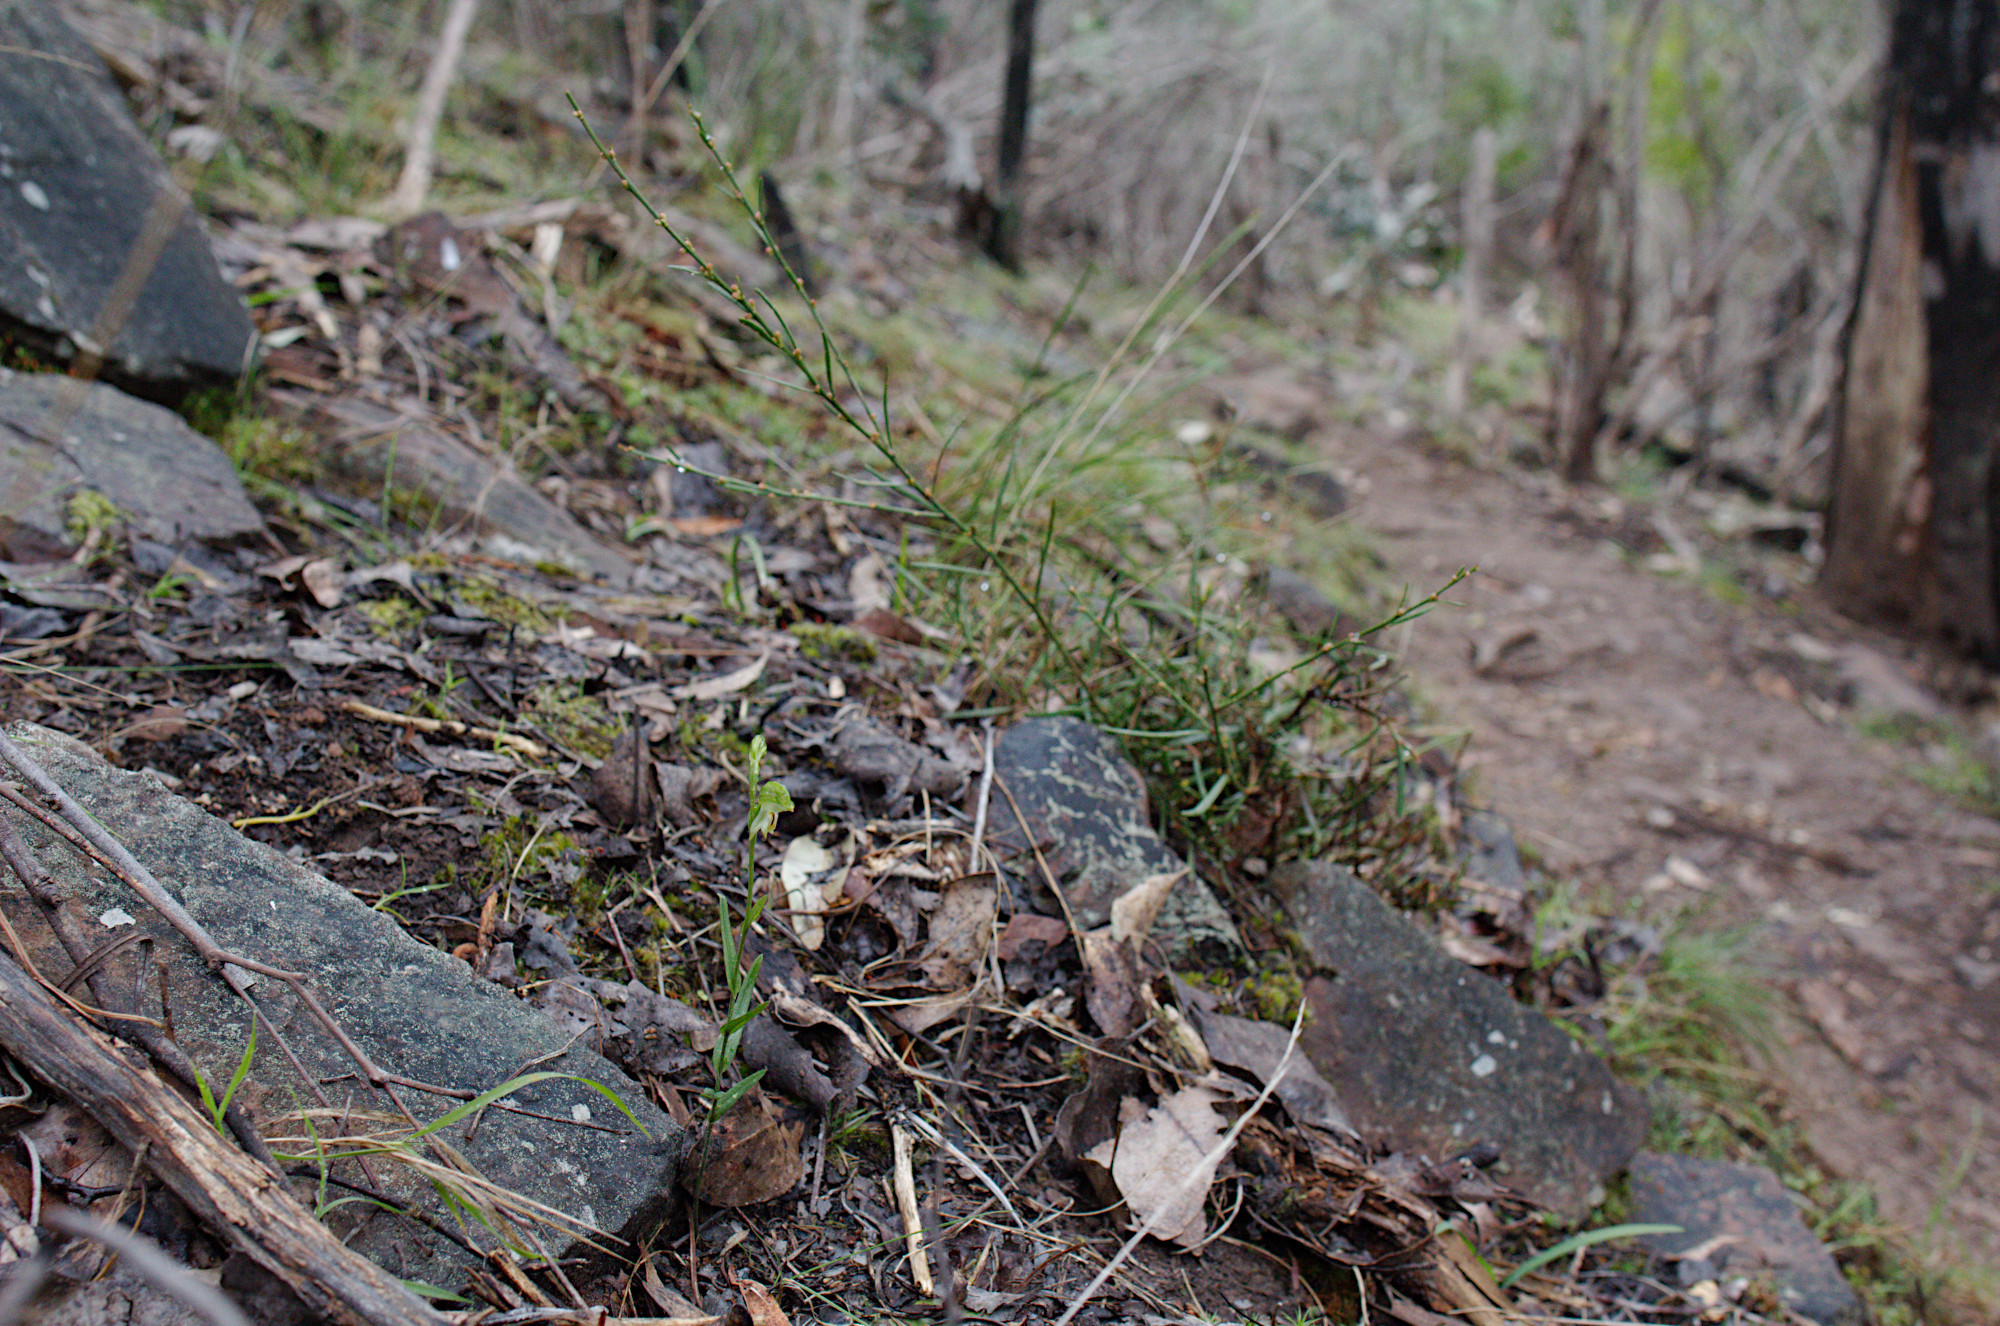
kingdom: Plantae
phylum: Tracheophyta
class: Liliopsida
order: Asparagales
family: Orchidaceae
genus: Pterostylis
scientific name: Pterostylis melagramma
